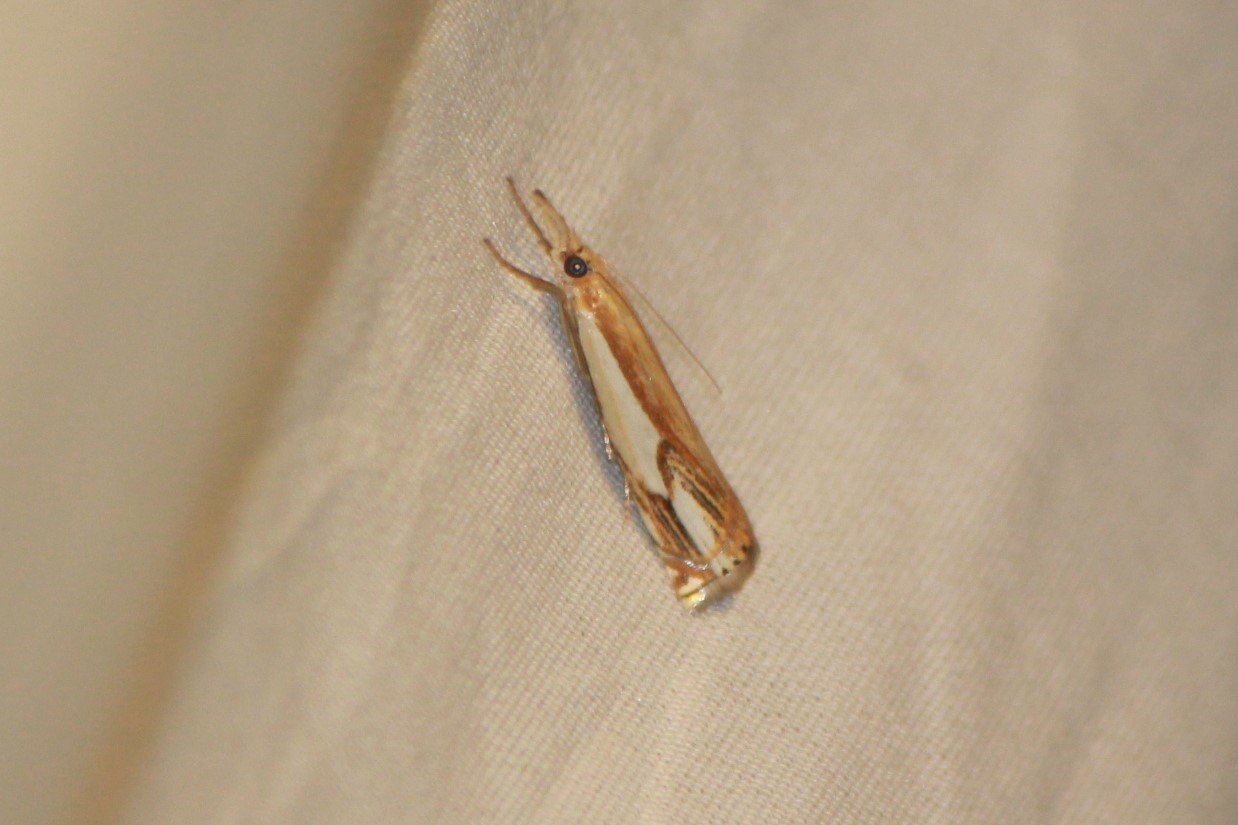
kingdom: Animalia
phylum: Arthropoda
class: Insecta
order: Lepidoptera
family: Crambidae
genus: Crambus
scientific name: Crambus agitatellus
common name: Double-banded grass-veneer
